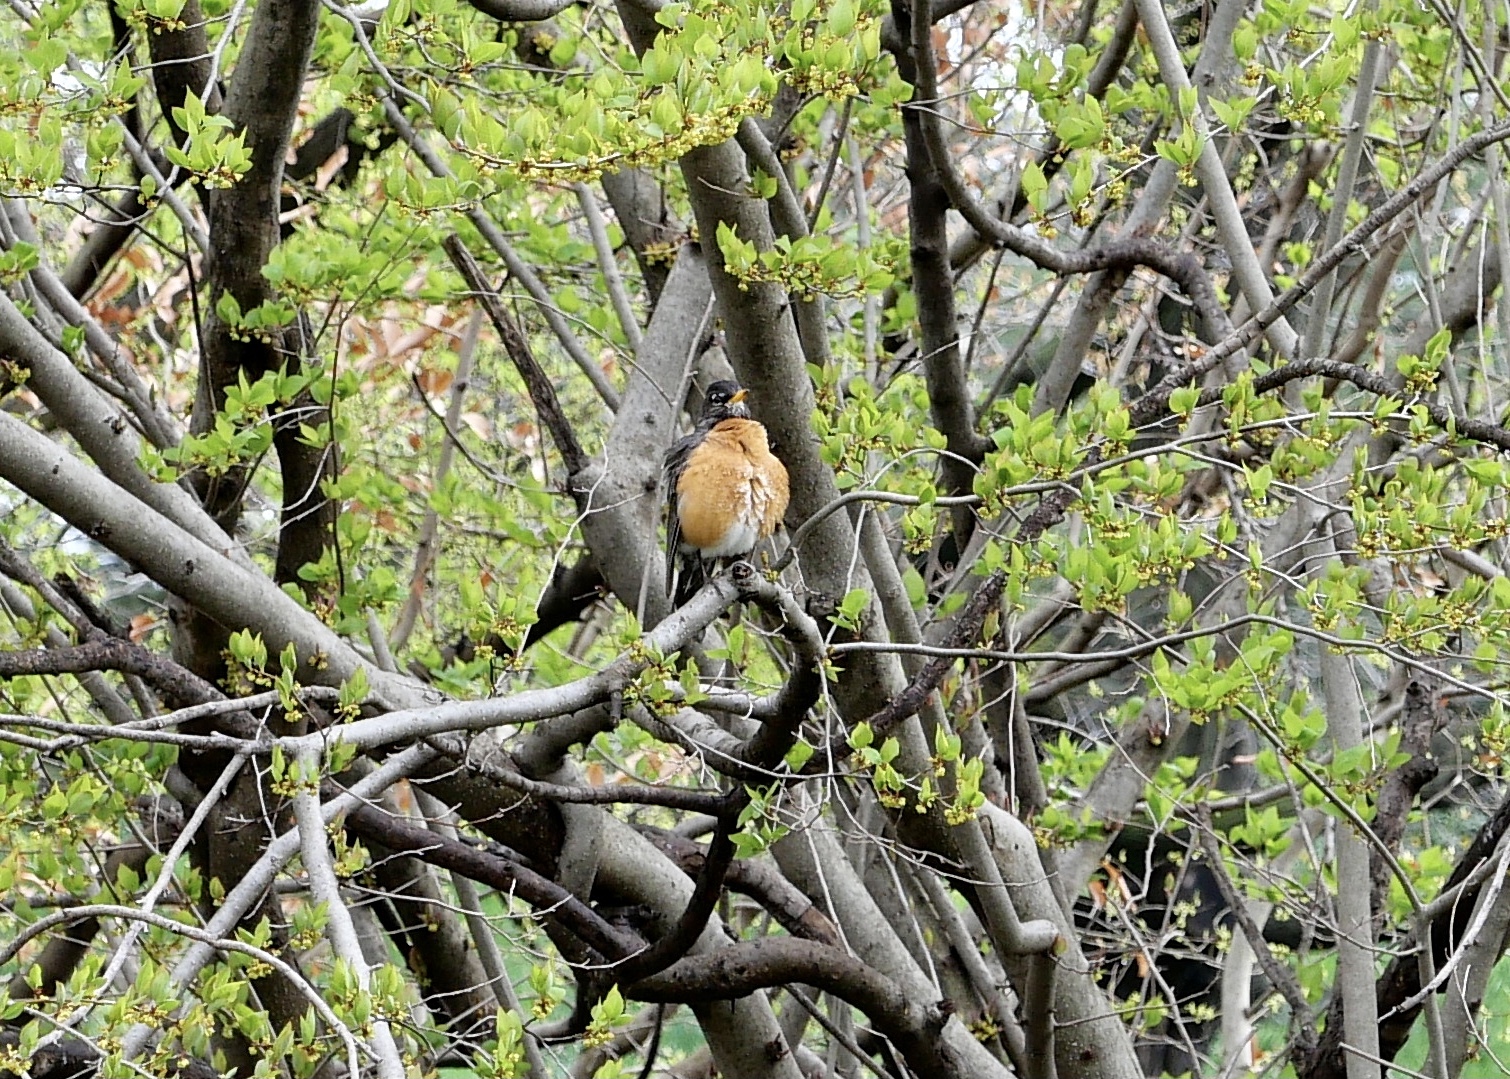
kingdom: Animalia
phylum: Chordata
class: Aves
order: Passeriformes
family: Turdidae
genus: Turdus
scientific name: Turdus migratorius
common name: American robin
